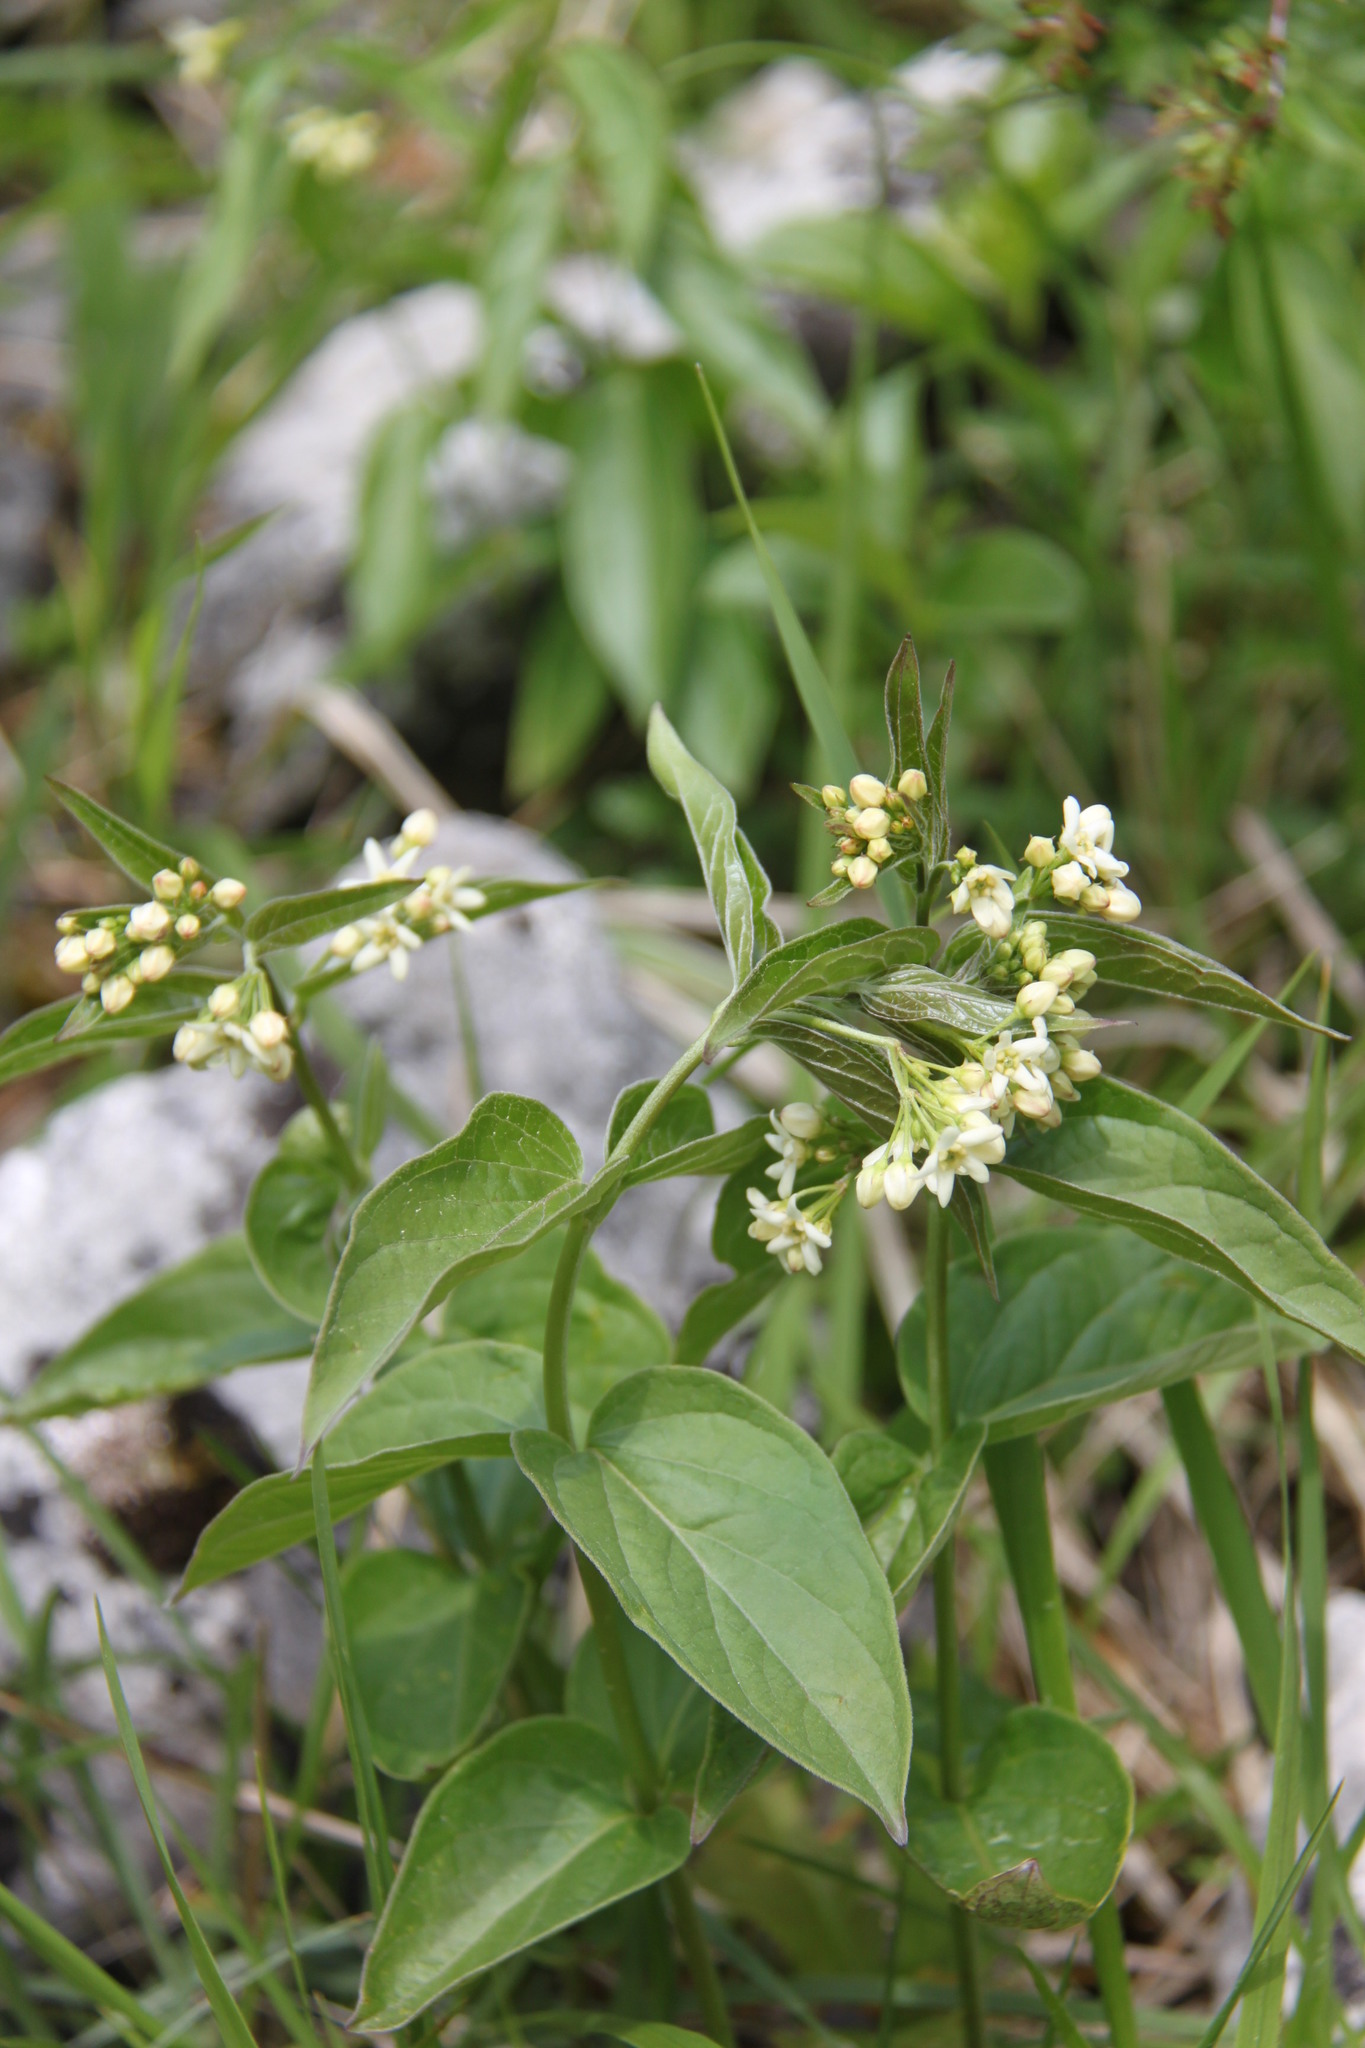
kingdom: Plantae
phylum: Tracheophyta
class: Magnoliopsida
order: Gentianales
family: Apocynaceae
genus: Vincetoxicum
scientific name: Vincetoxicum hirundinaria
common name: White swallowwort
